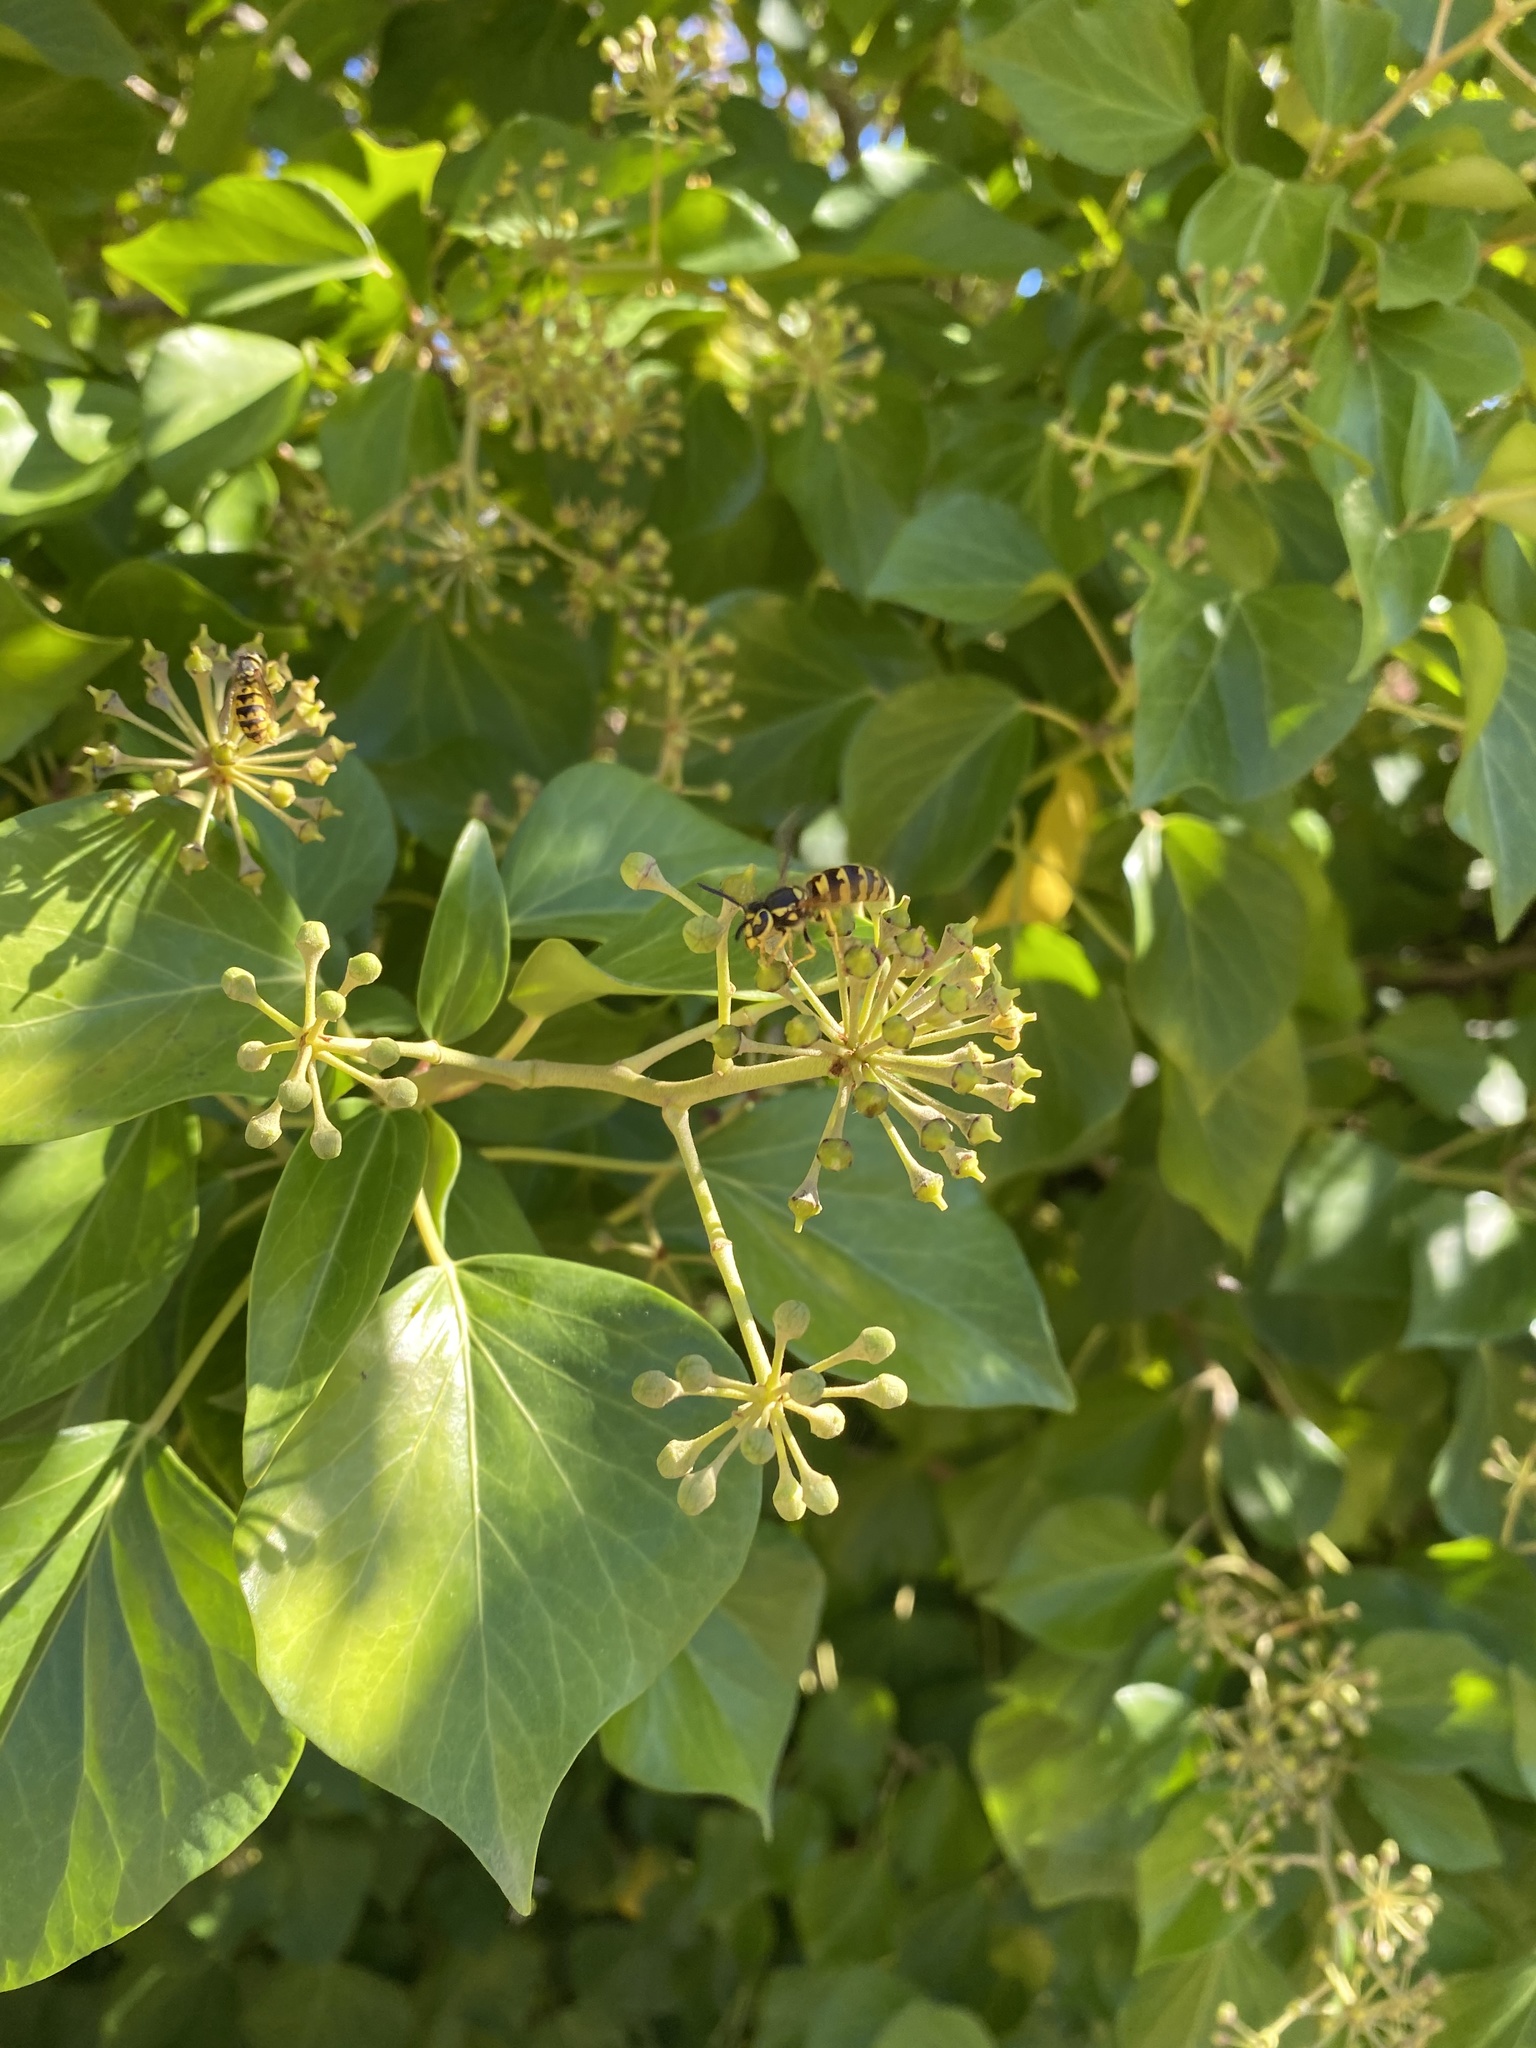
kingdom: Animalia
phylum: Arthropoda
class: Insecta
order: Hymenoptera
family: Vespidae
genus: Vespula
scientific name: Vespula pensylvanica
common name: Western yellowjacket
